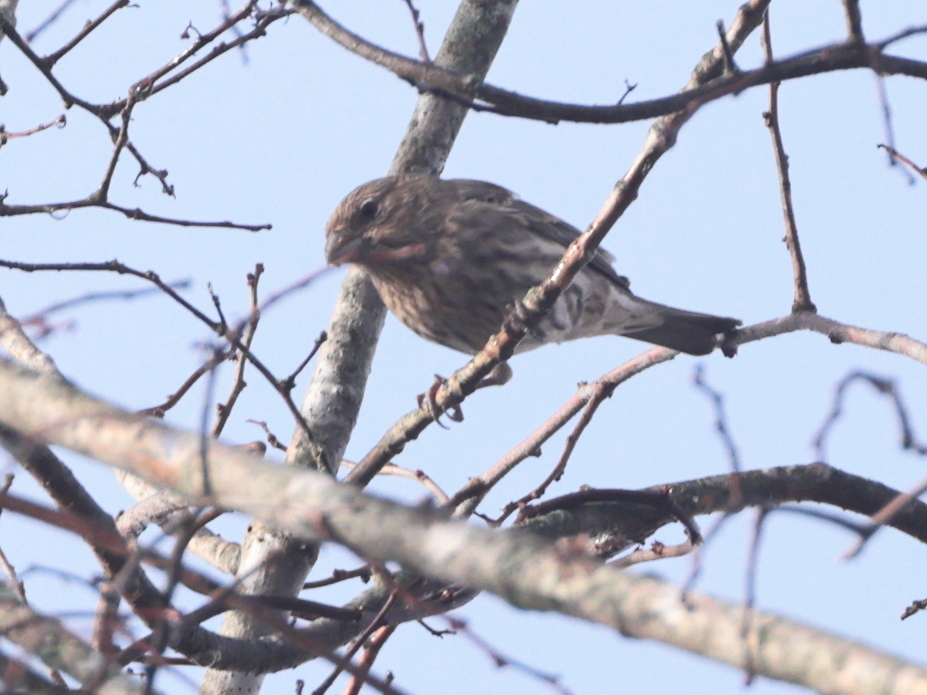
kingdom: Animalia
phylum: Chordata
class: Aves
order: Passeriformes
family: Fringillidae
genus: Haemorhous
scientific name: Haemorhous mexicanus
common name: House finch
